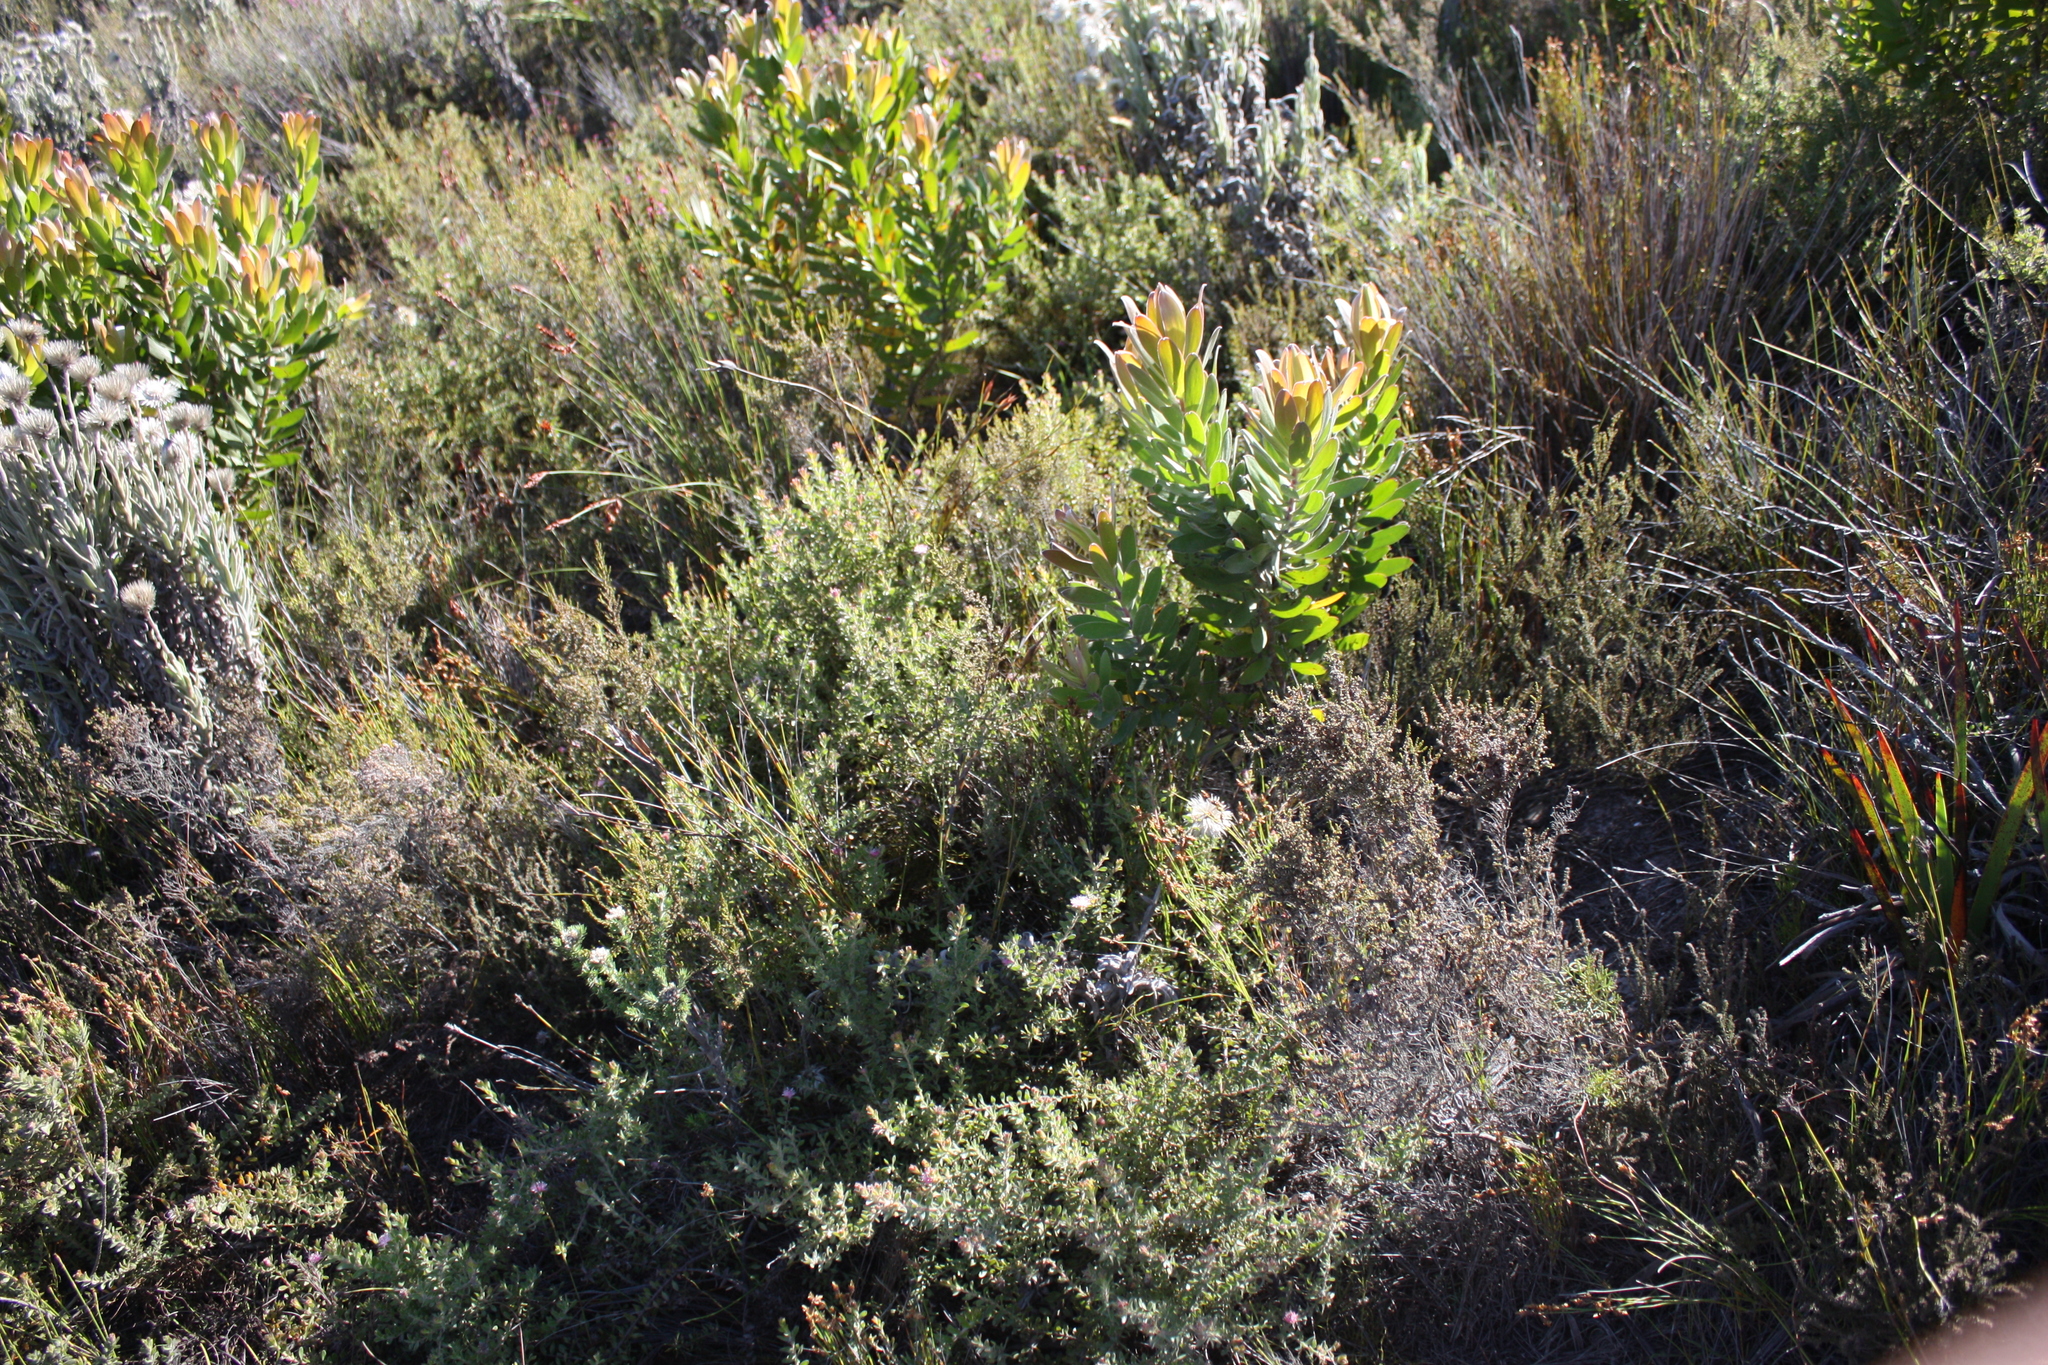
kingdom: Plantae
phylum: Tracheophyta
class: Magnoliopsida
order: Proteales
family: Proteaceae
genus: Diastella
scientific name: Diastella divaricata
